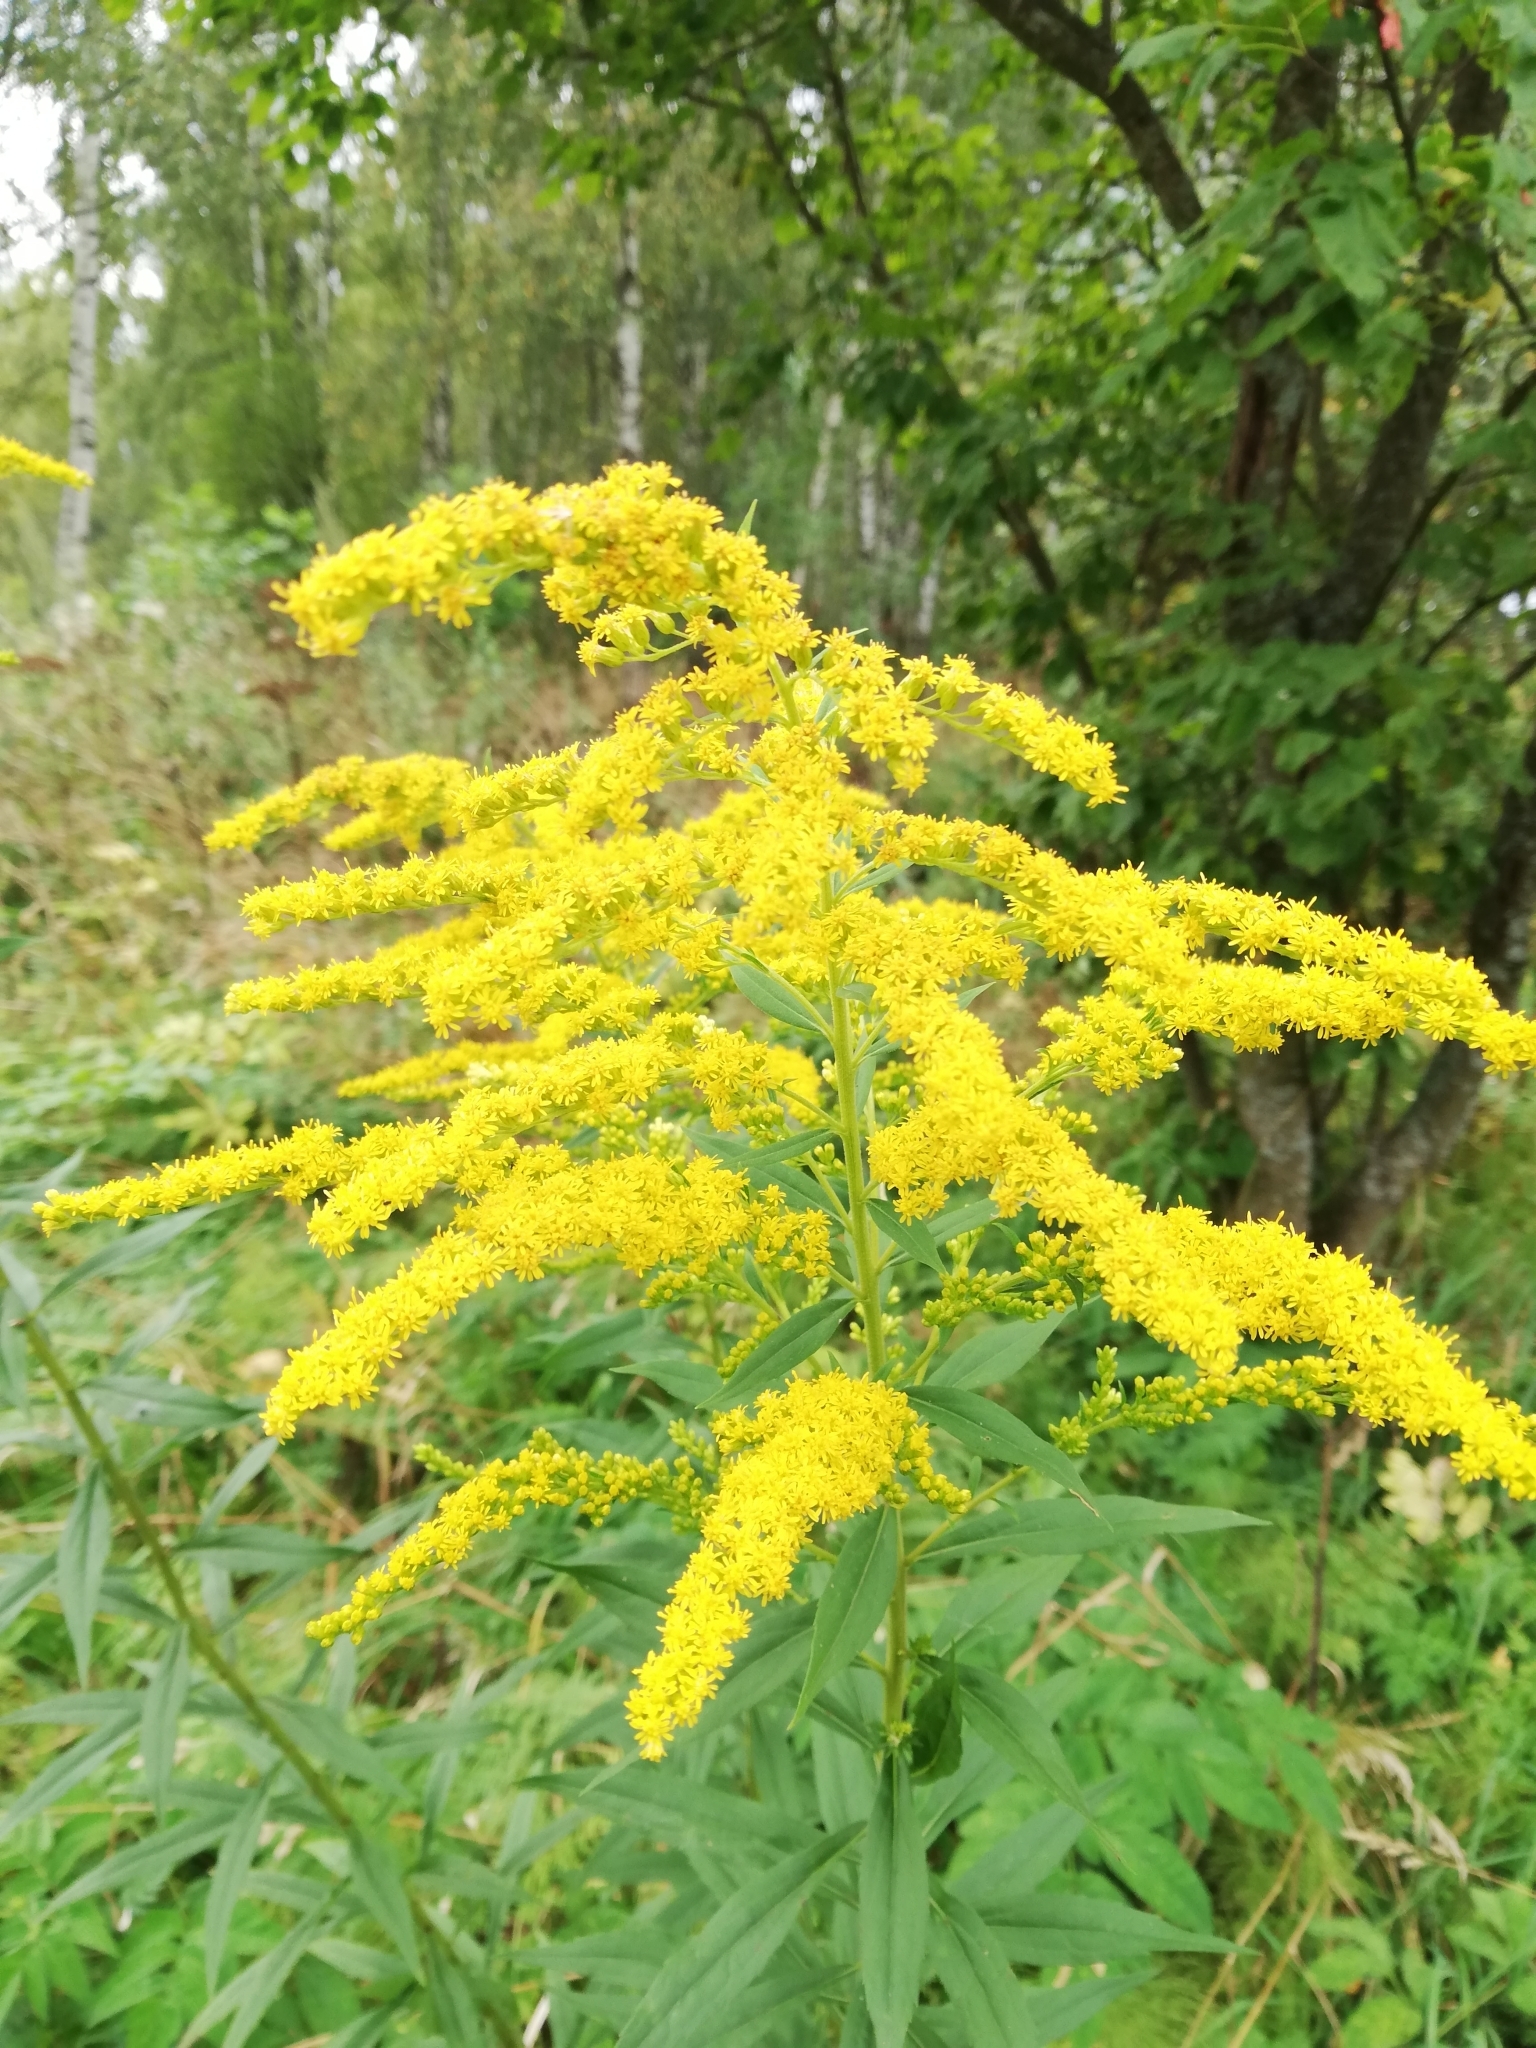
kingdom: Plantae
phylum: Tracheophyta
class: Magnoliopsida
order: Asterales
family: Asteraceae
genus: Solidago
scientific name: Solidago canadensis
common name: Canada goldenrod
